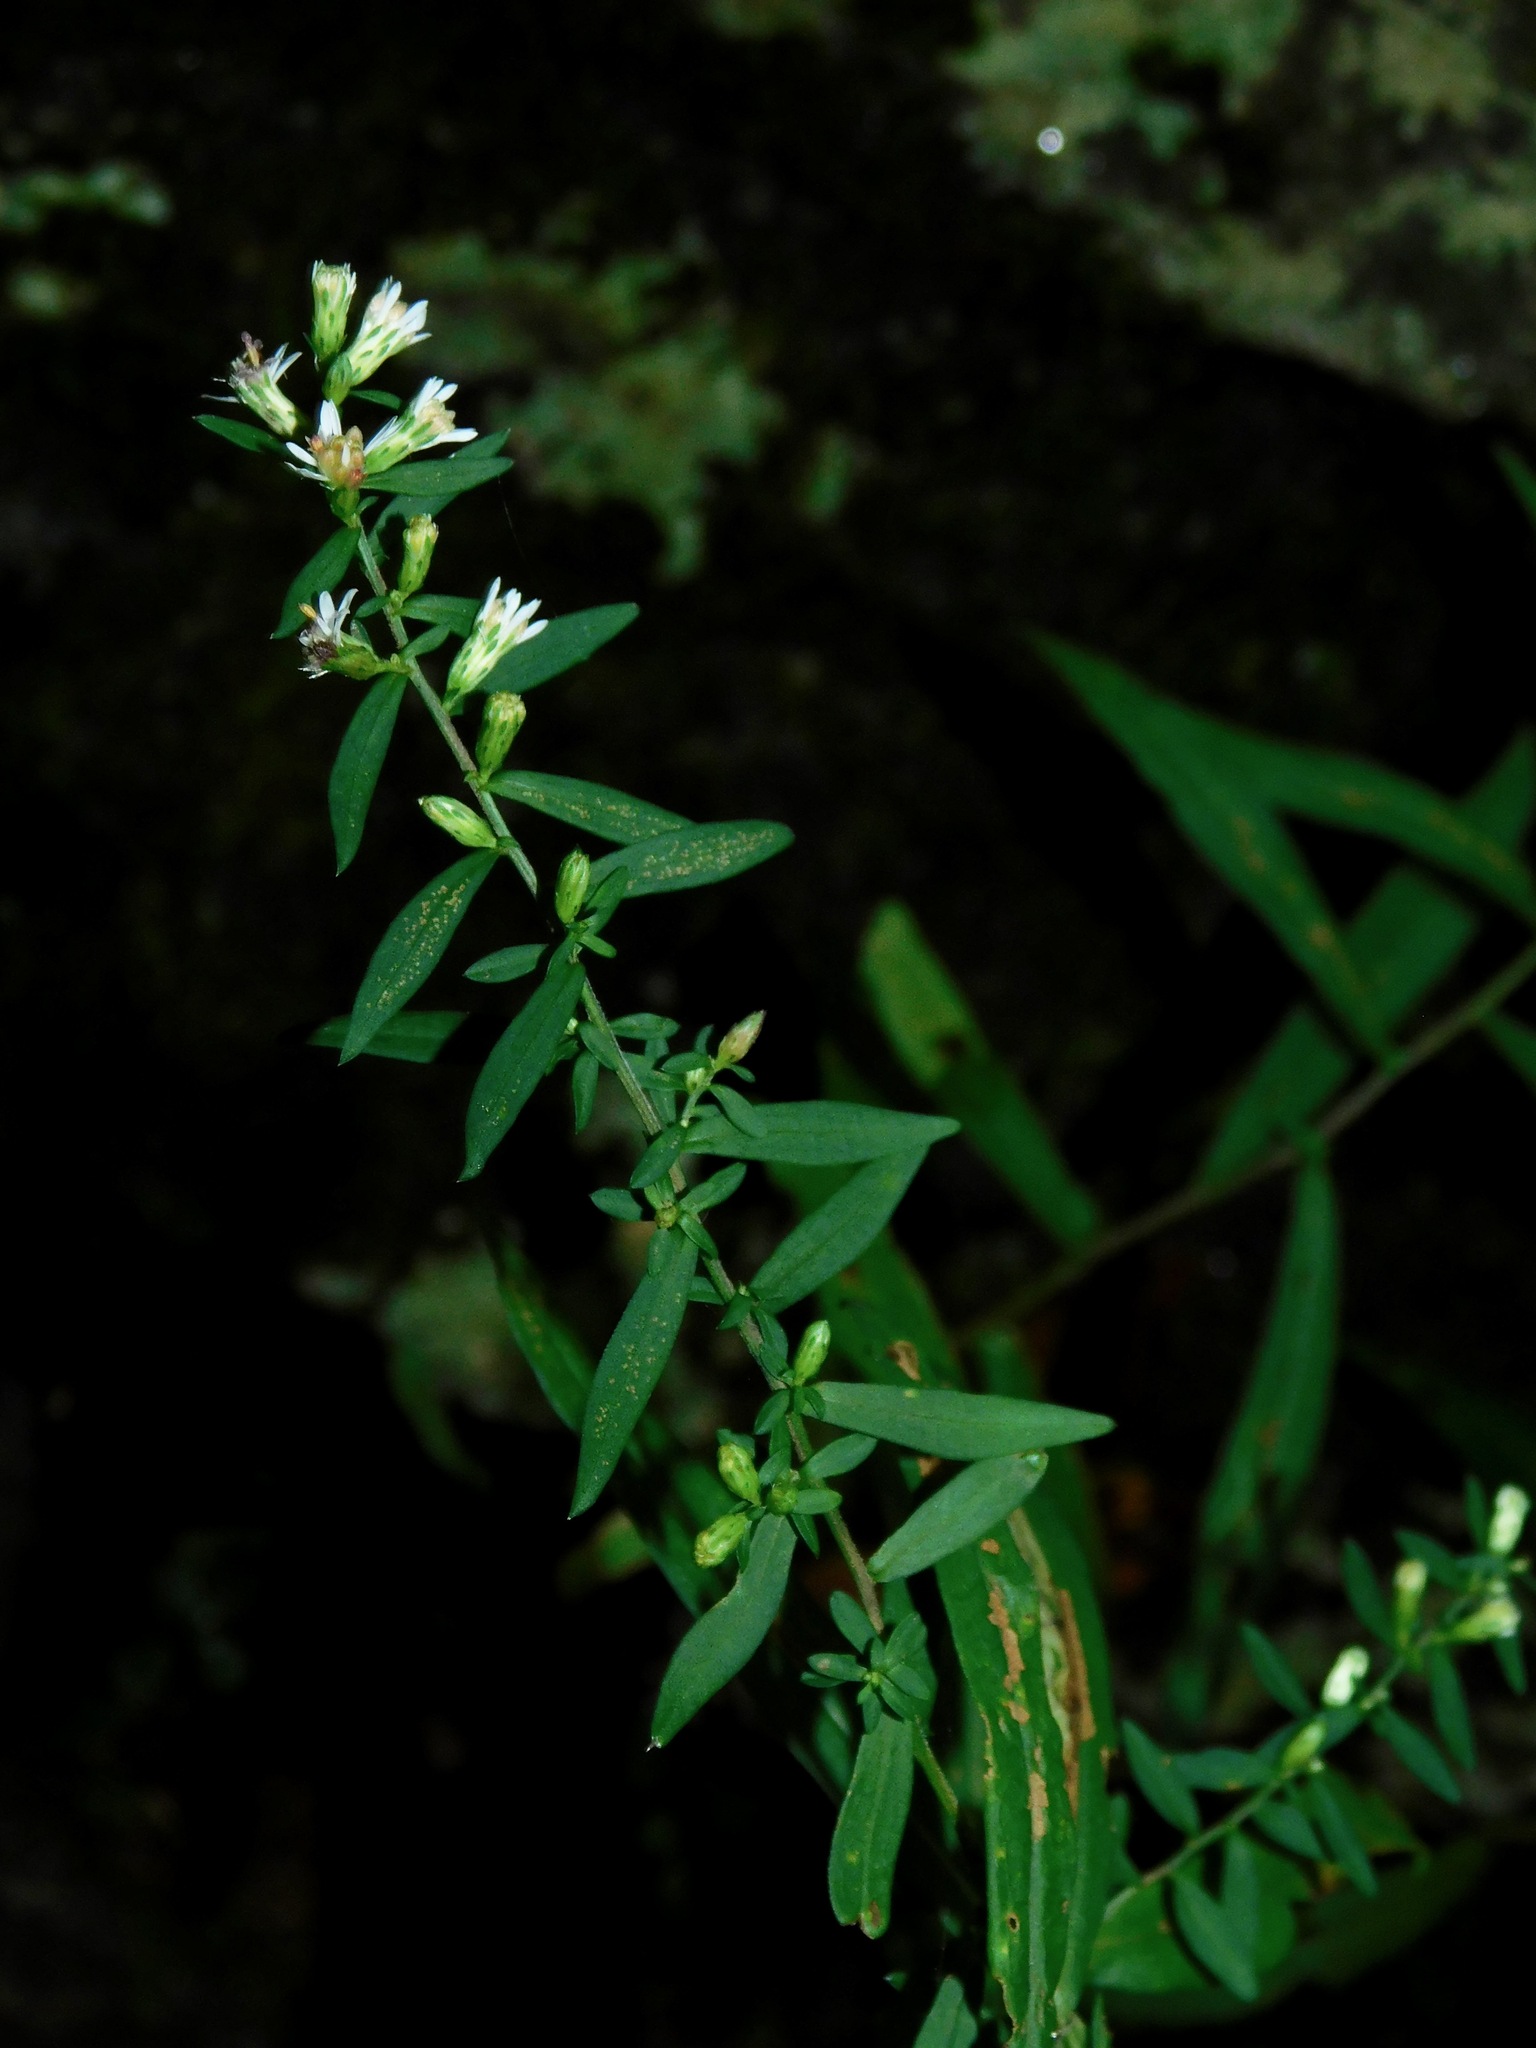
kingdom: Plantae
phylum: Tracheophyta
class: Magnoliopsida
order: Asterales
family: Asteraceae
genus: Symphyotrichum
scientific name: Symphyotrichum lateriflorum
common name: Calico aster
